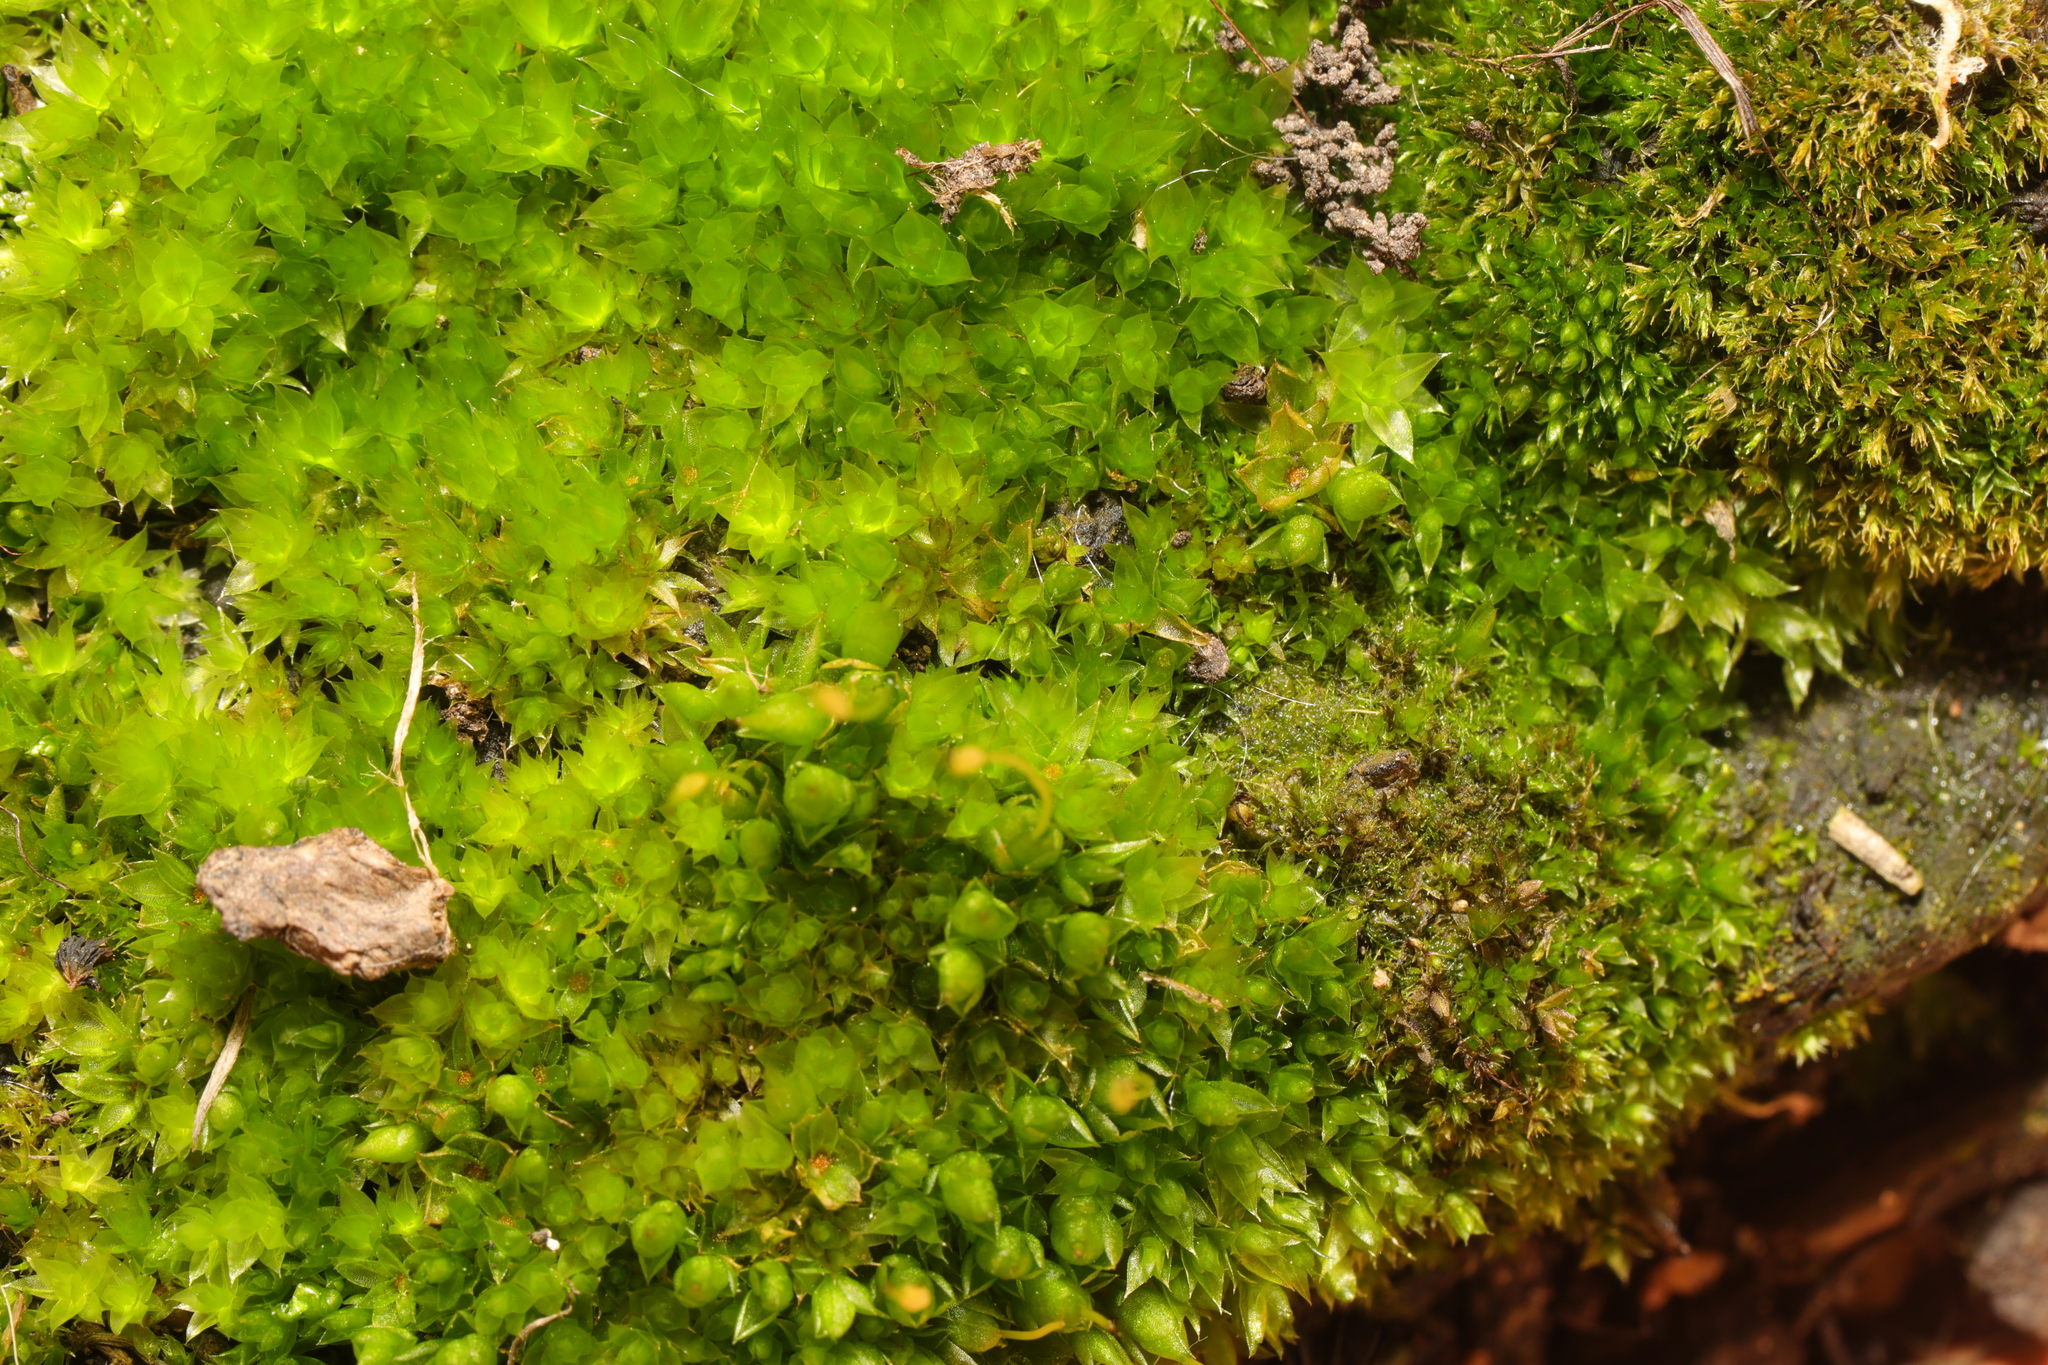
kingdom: Plantae
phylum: Bryophyta
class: Bryopsida
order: Funariales
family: Funariaceae
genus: Funaria
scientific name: Funaria hygrometrica
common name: Common cord moss
